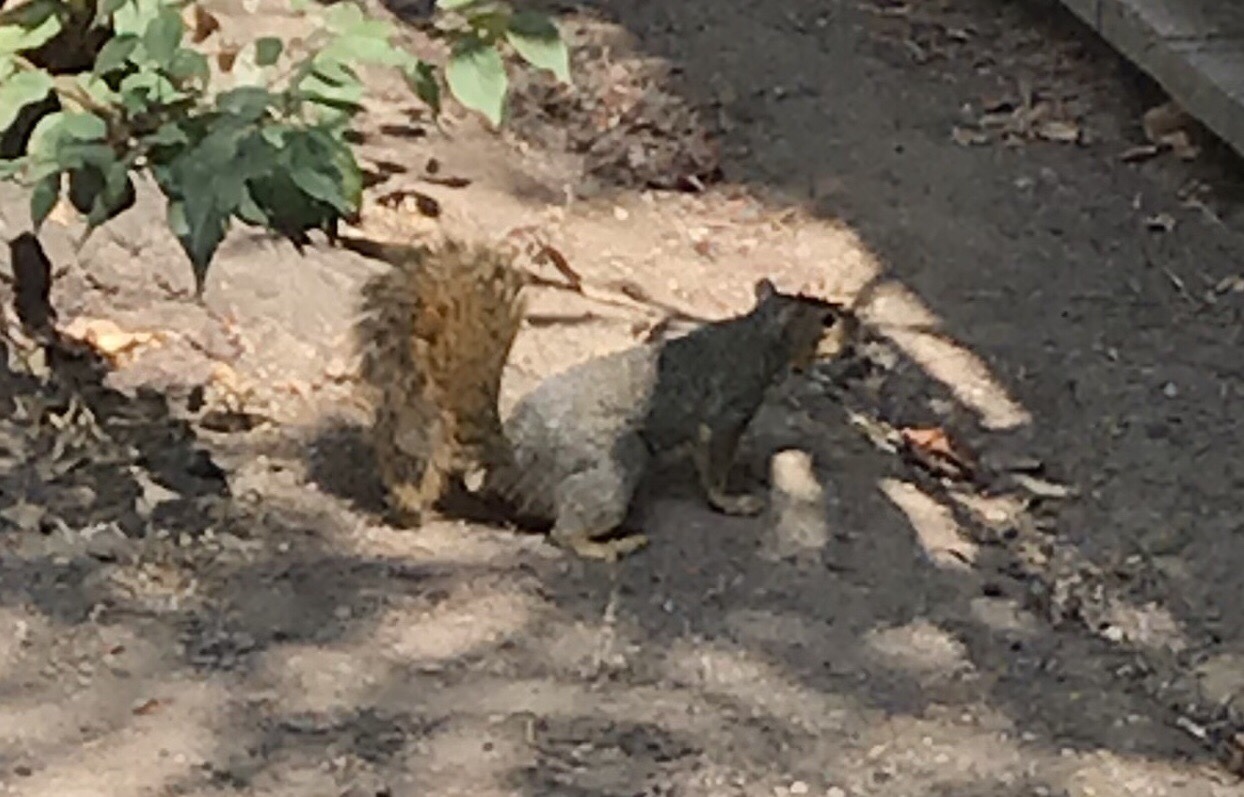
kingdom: Animalia
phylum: Chordata
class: Mammalia
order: Rodentia
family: Sciuridae
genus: Sciurus
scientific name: Sciurus niger
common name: Fox squirrel
